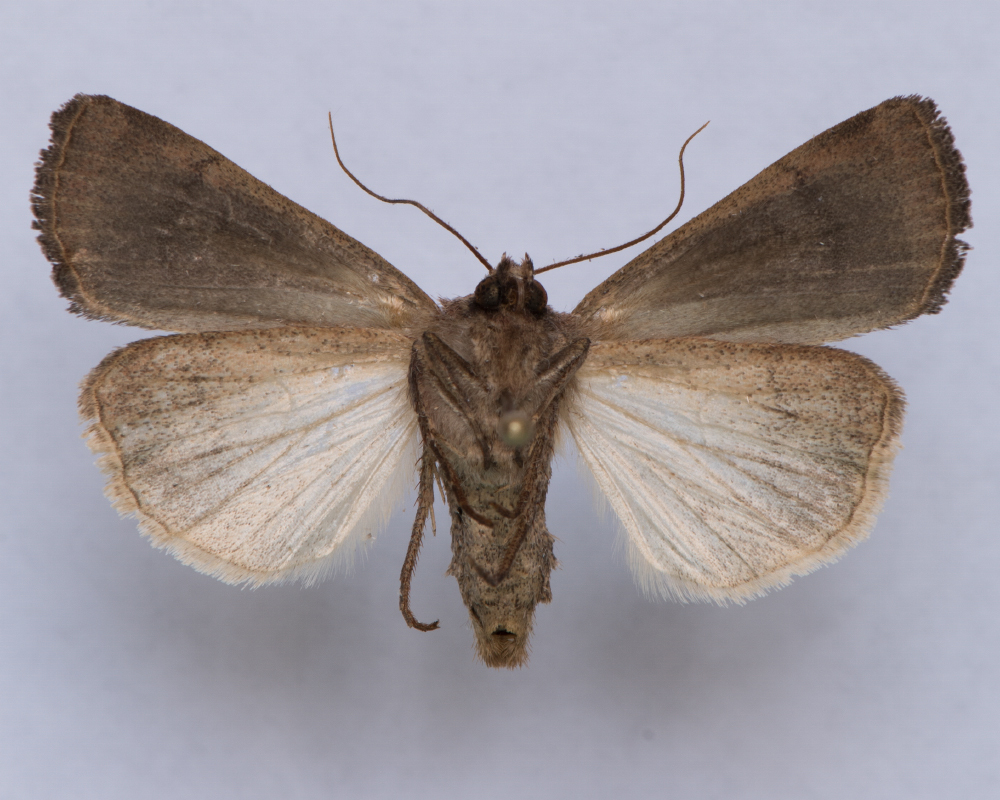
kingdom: Animalia
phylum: Arthropoda
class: Insecta
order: Lepidoptera
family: Noctuidae
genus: Xestia
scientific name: Xestia xanthographa
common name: Square-spot rustic
